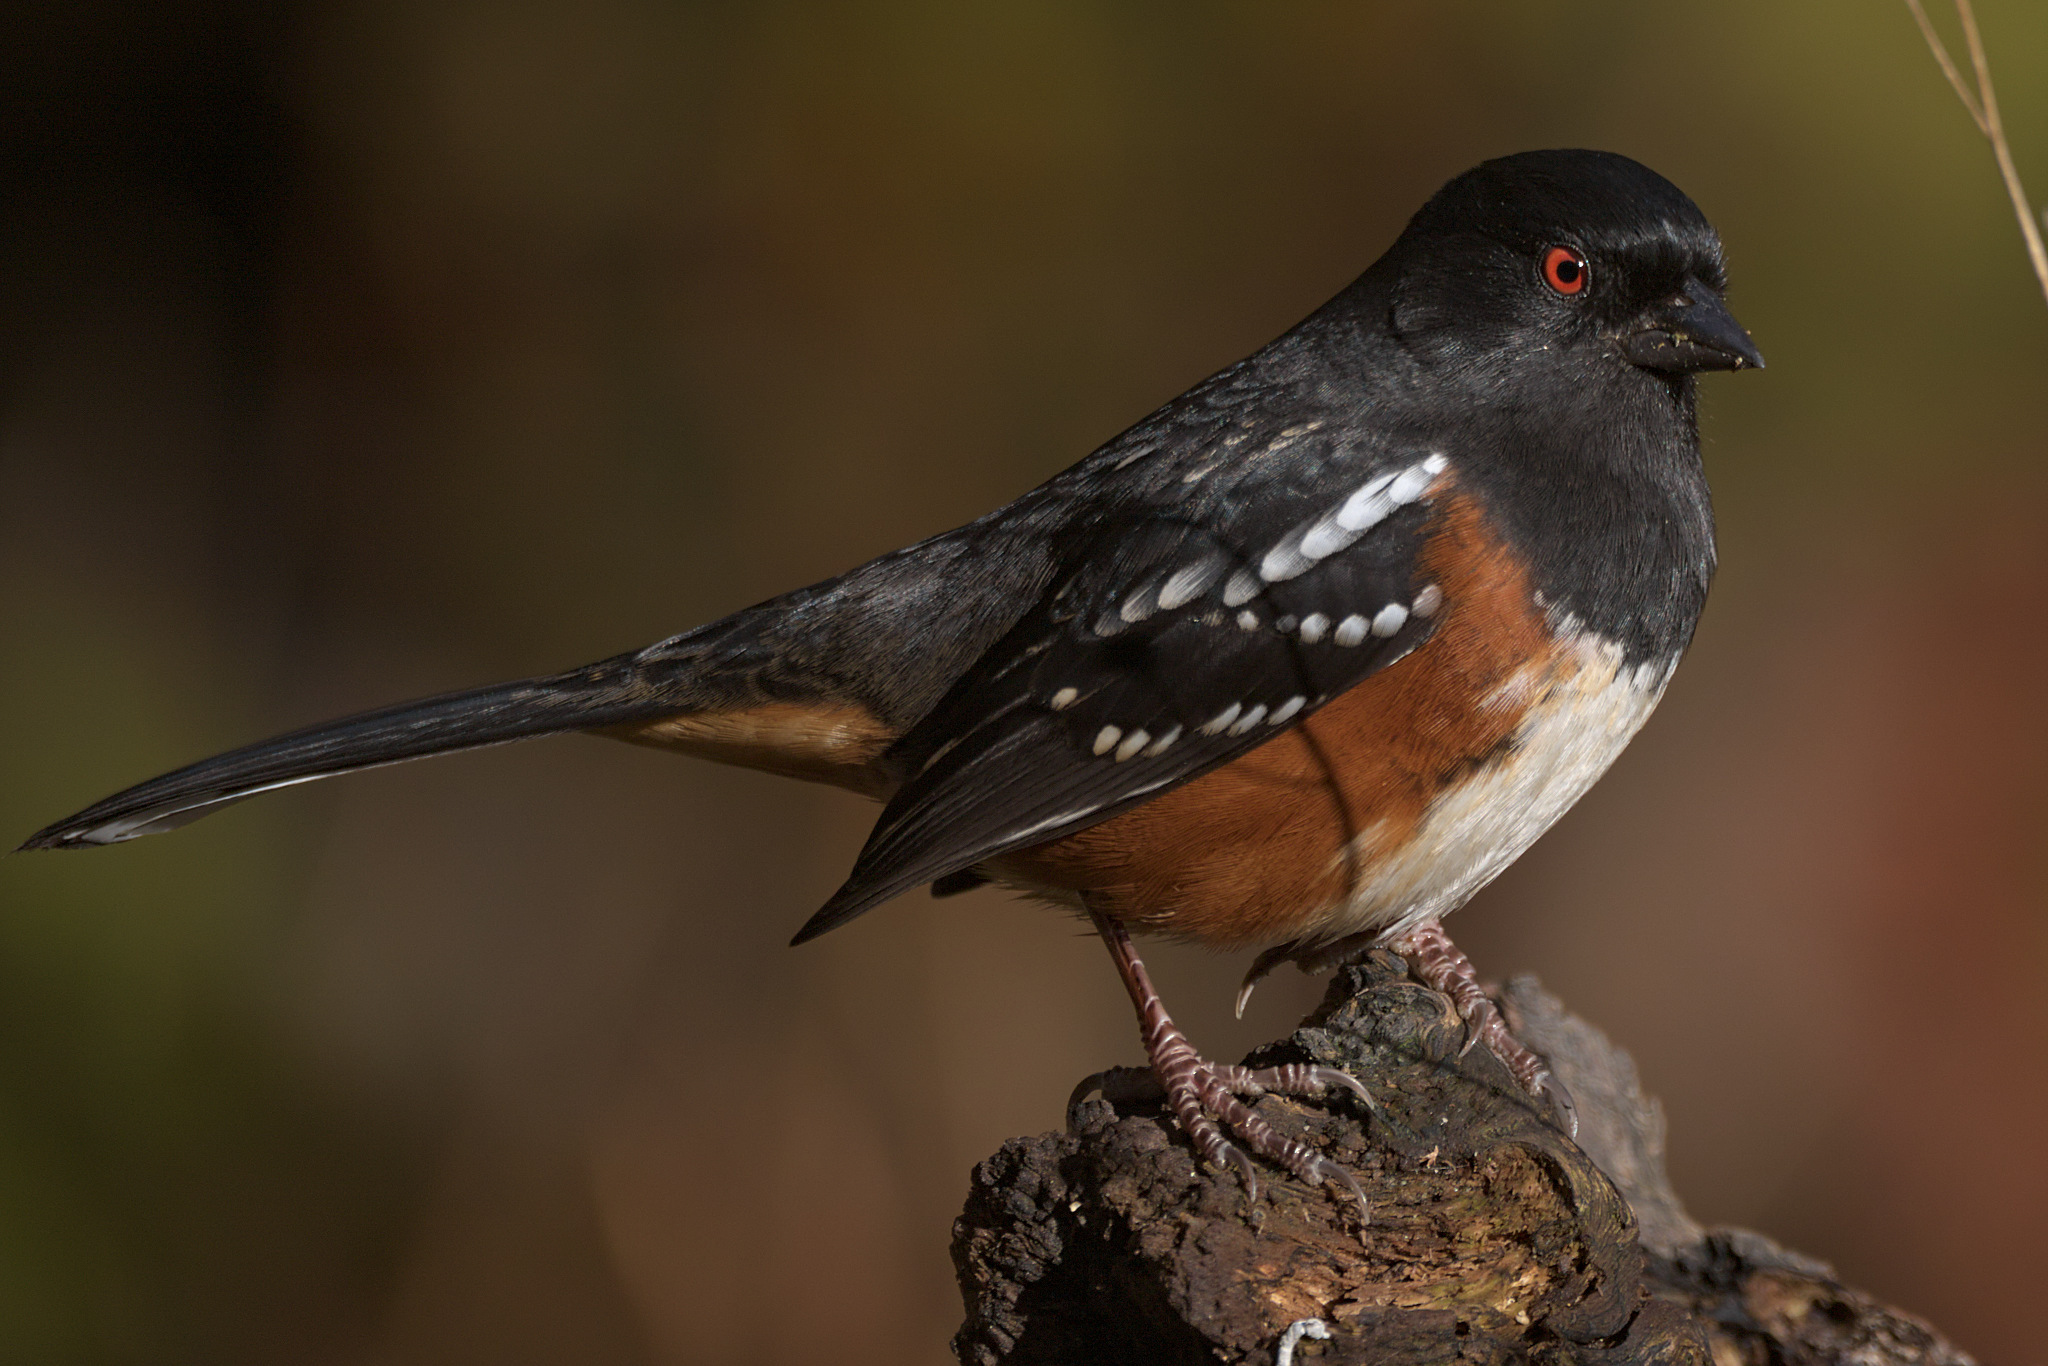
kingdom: Animalia
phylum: Chordata
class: Aves
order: Passeriformes
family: Passerellidae
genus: Pipilo
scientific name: Pipilo maculatus
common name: Spotted towhee
